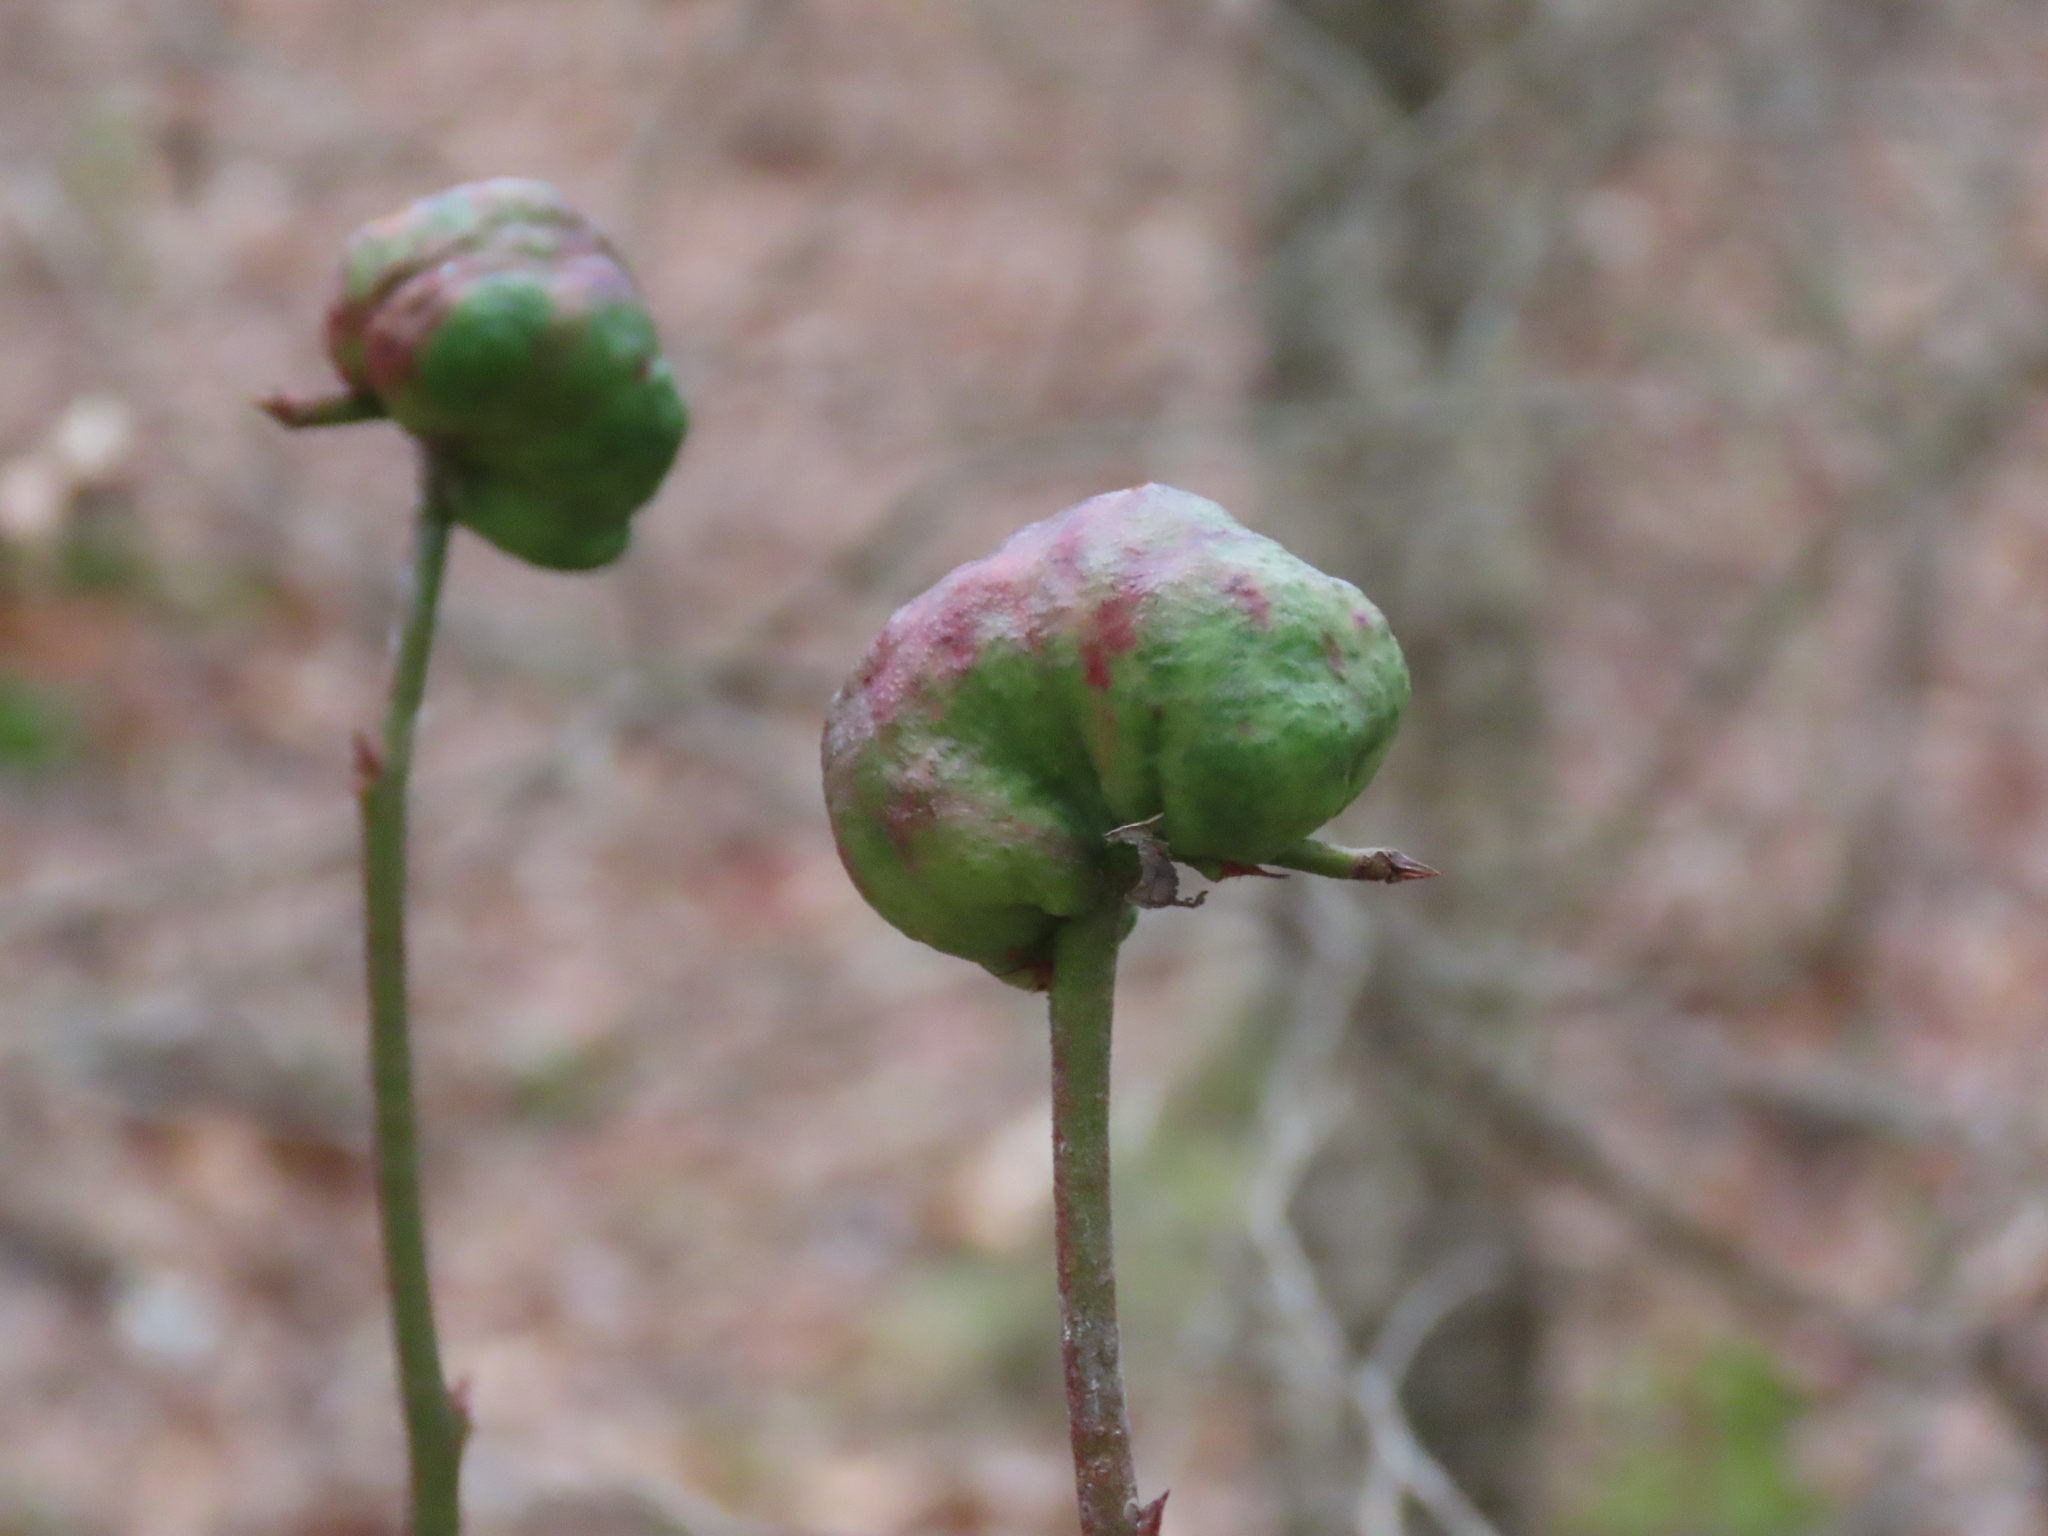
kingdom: Animalia
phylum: Arthropoda
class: Insecta
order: Hymenoptera
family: Pteromalidae
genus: Hemadas
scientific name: Hemadas nubilipennis
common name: Blueberry stem gall wasp
